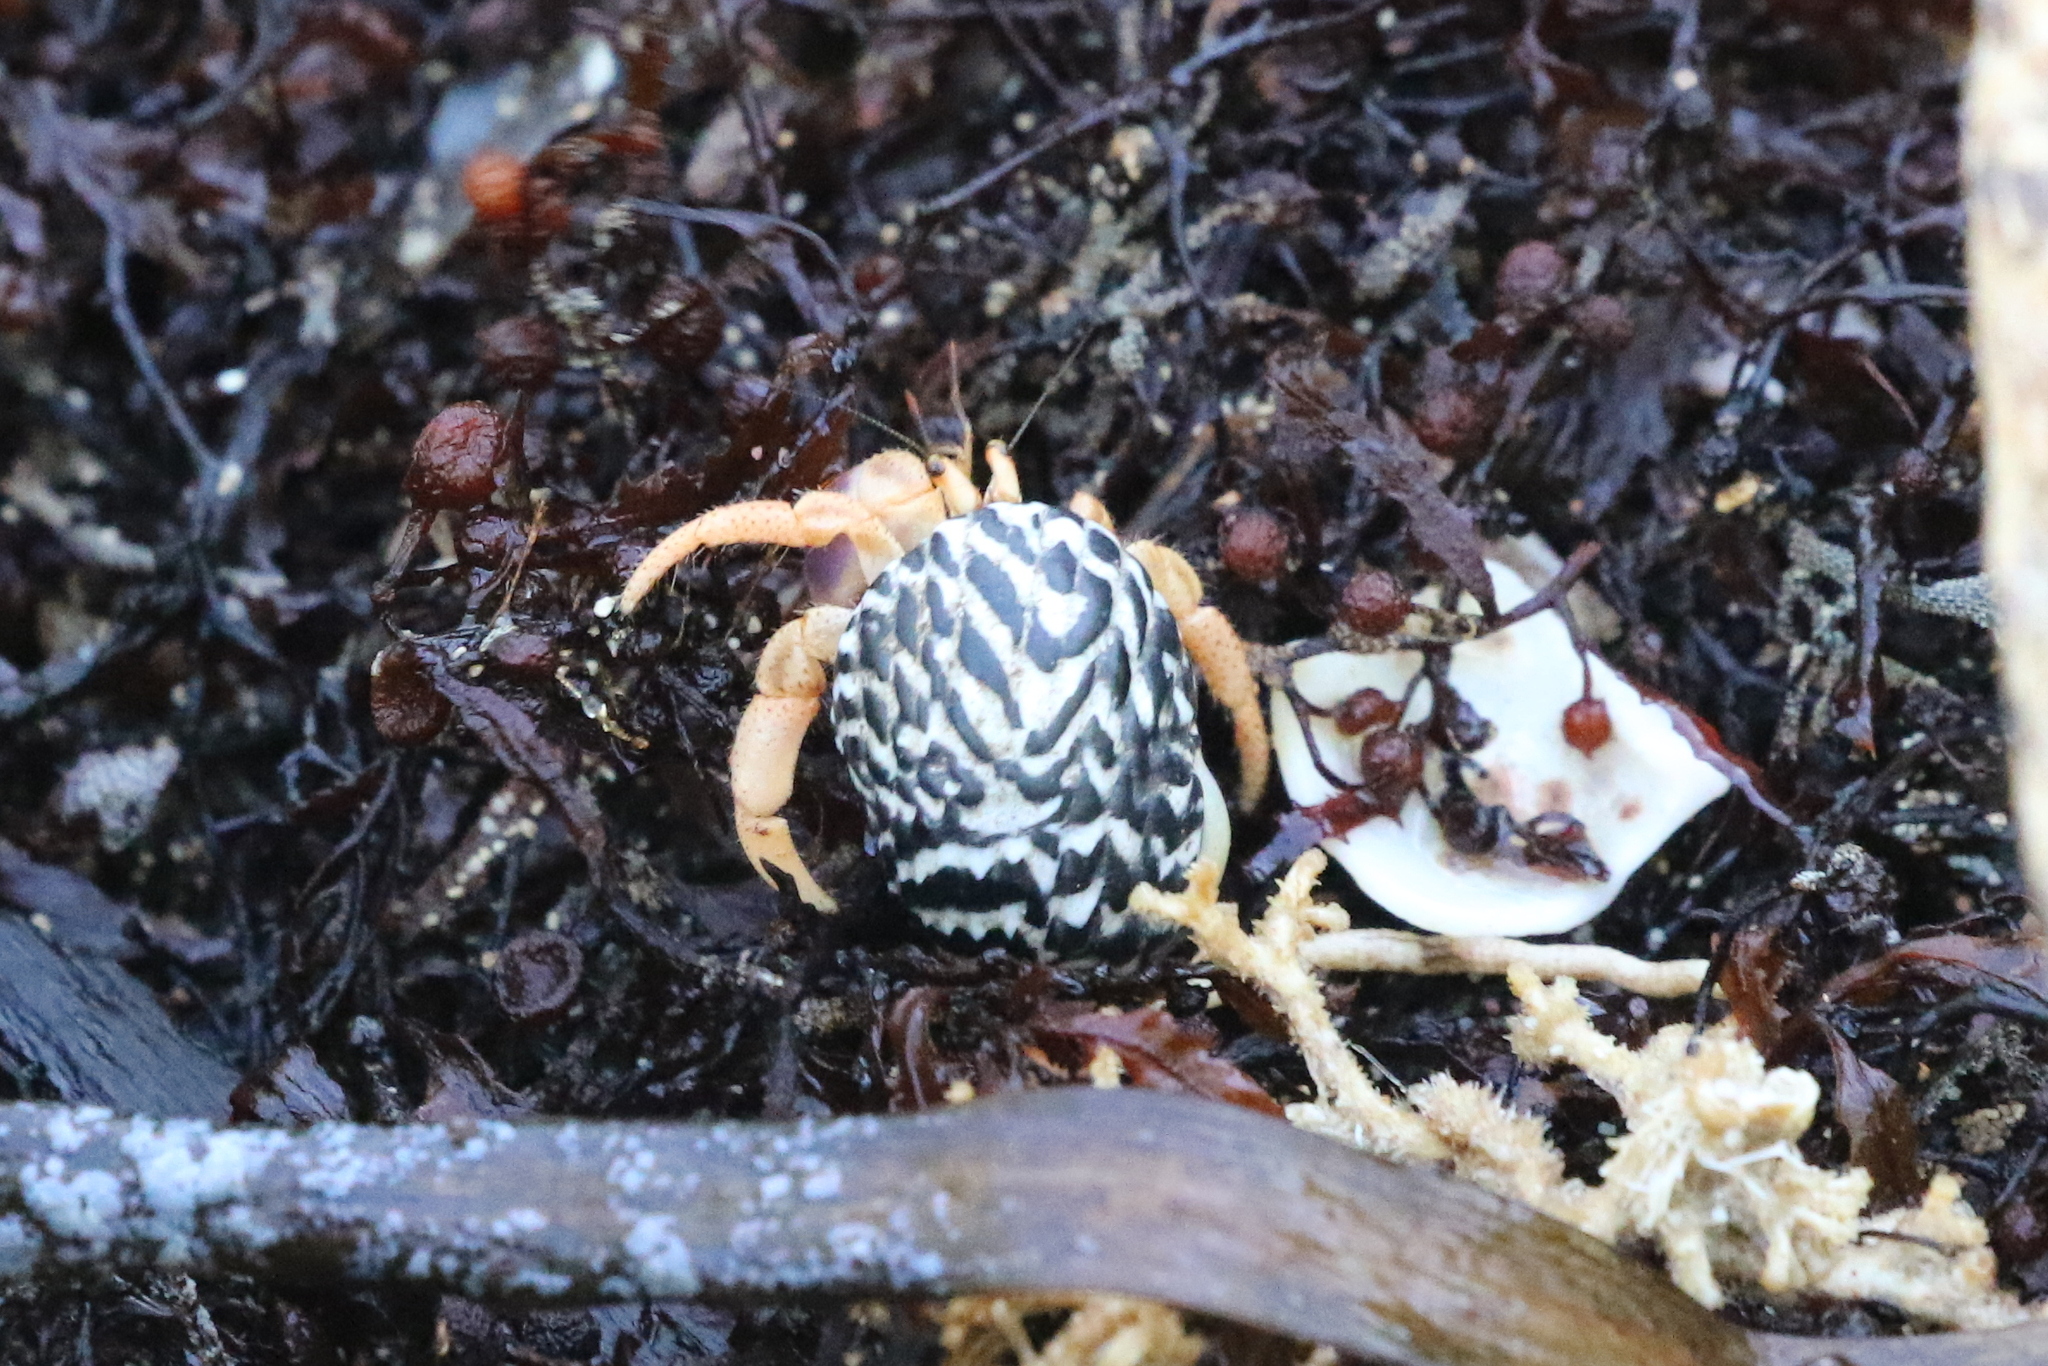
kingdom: Animalia
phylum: Arthropoda
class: Malacostraca
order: Decapoda
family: Coenobitidae
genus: Coenobita
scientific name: Coenobita clypeatus
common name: Caribbean hermit crab
